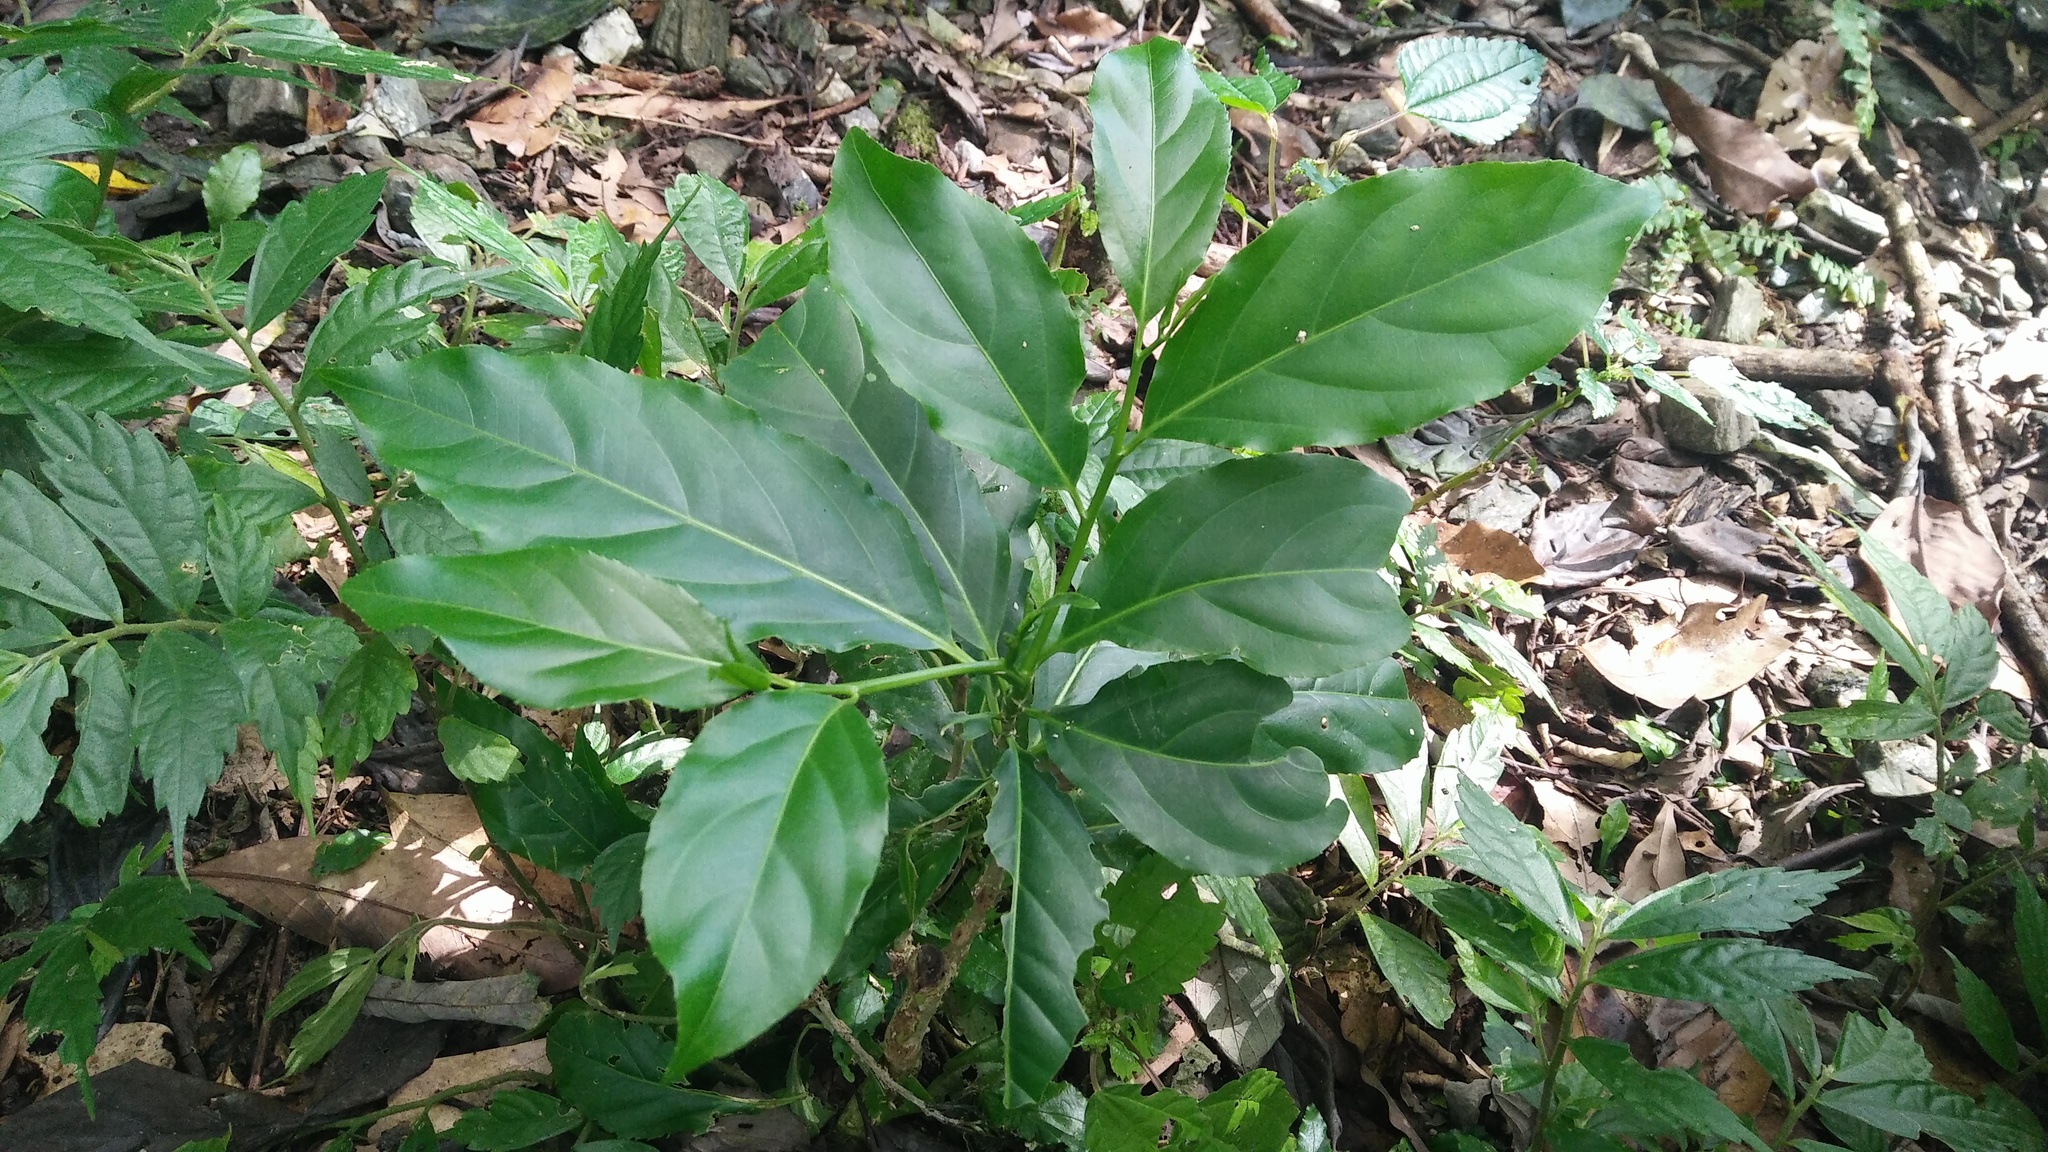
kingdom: Plantae
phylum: Tracheophyta
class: Magnoliopsida
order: Malpighiales
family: Salicaceae
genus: Casearia
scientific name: Casearia membranacea
